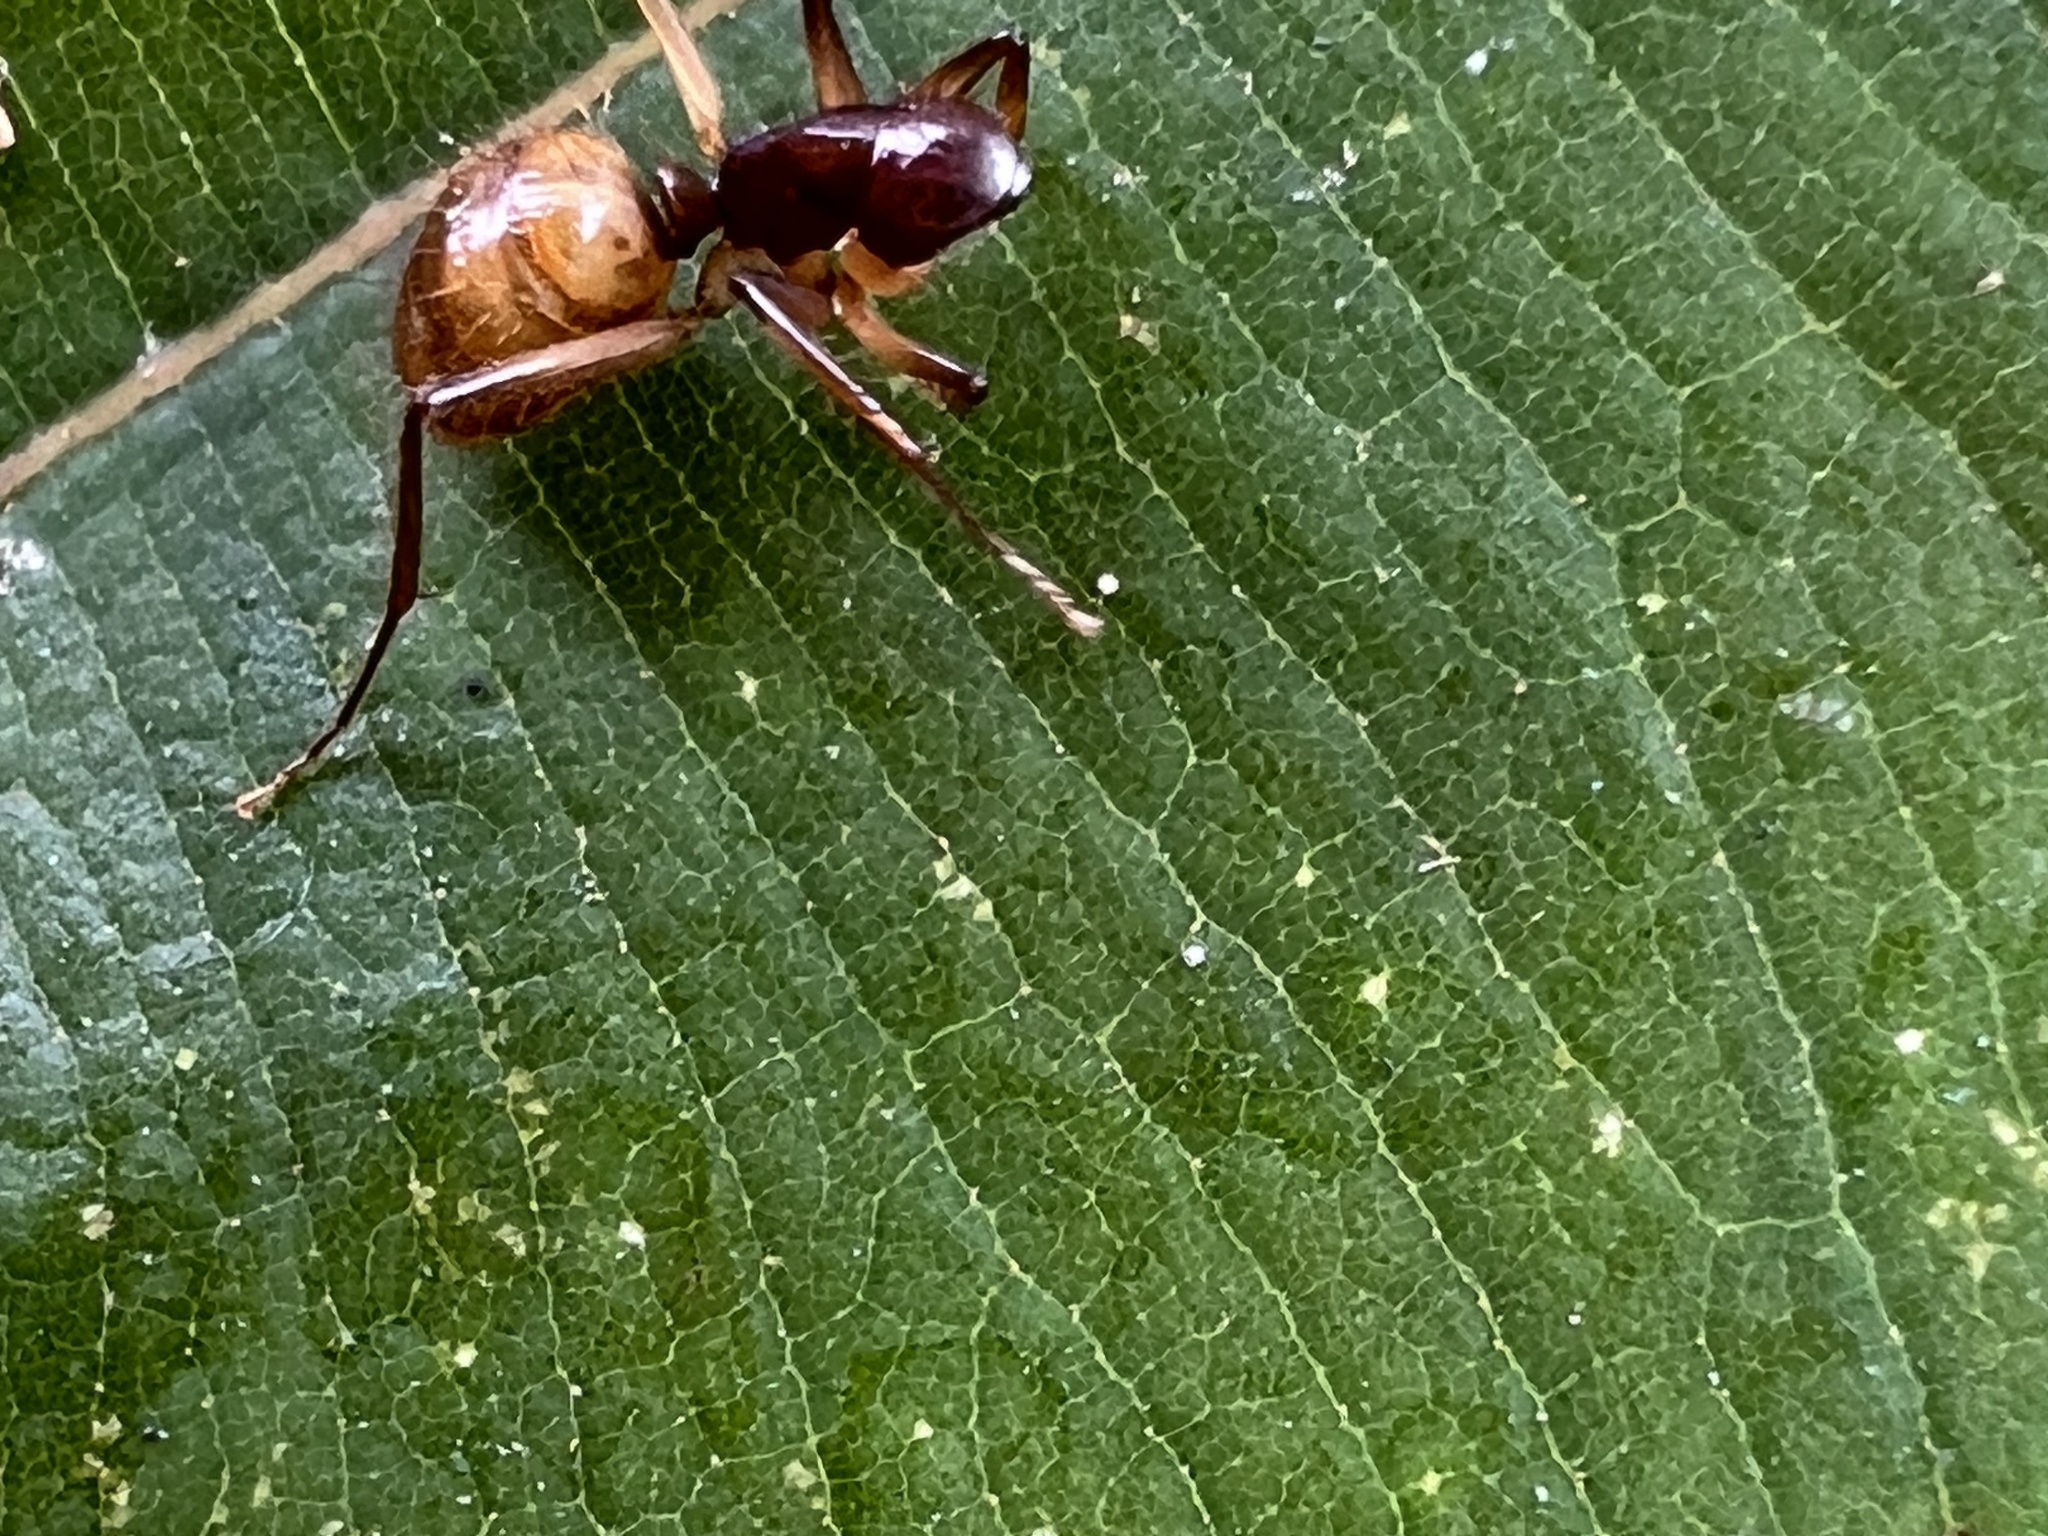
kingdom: Animalia
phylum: Arthropoda
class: Insecta
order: Hymenoptera
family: Formicidae
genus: Camponotus
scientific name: Camponotus atriceps
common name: Florida carpenter ant
